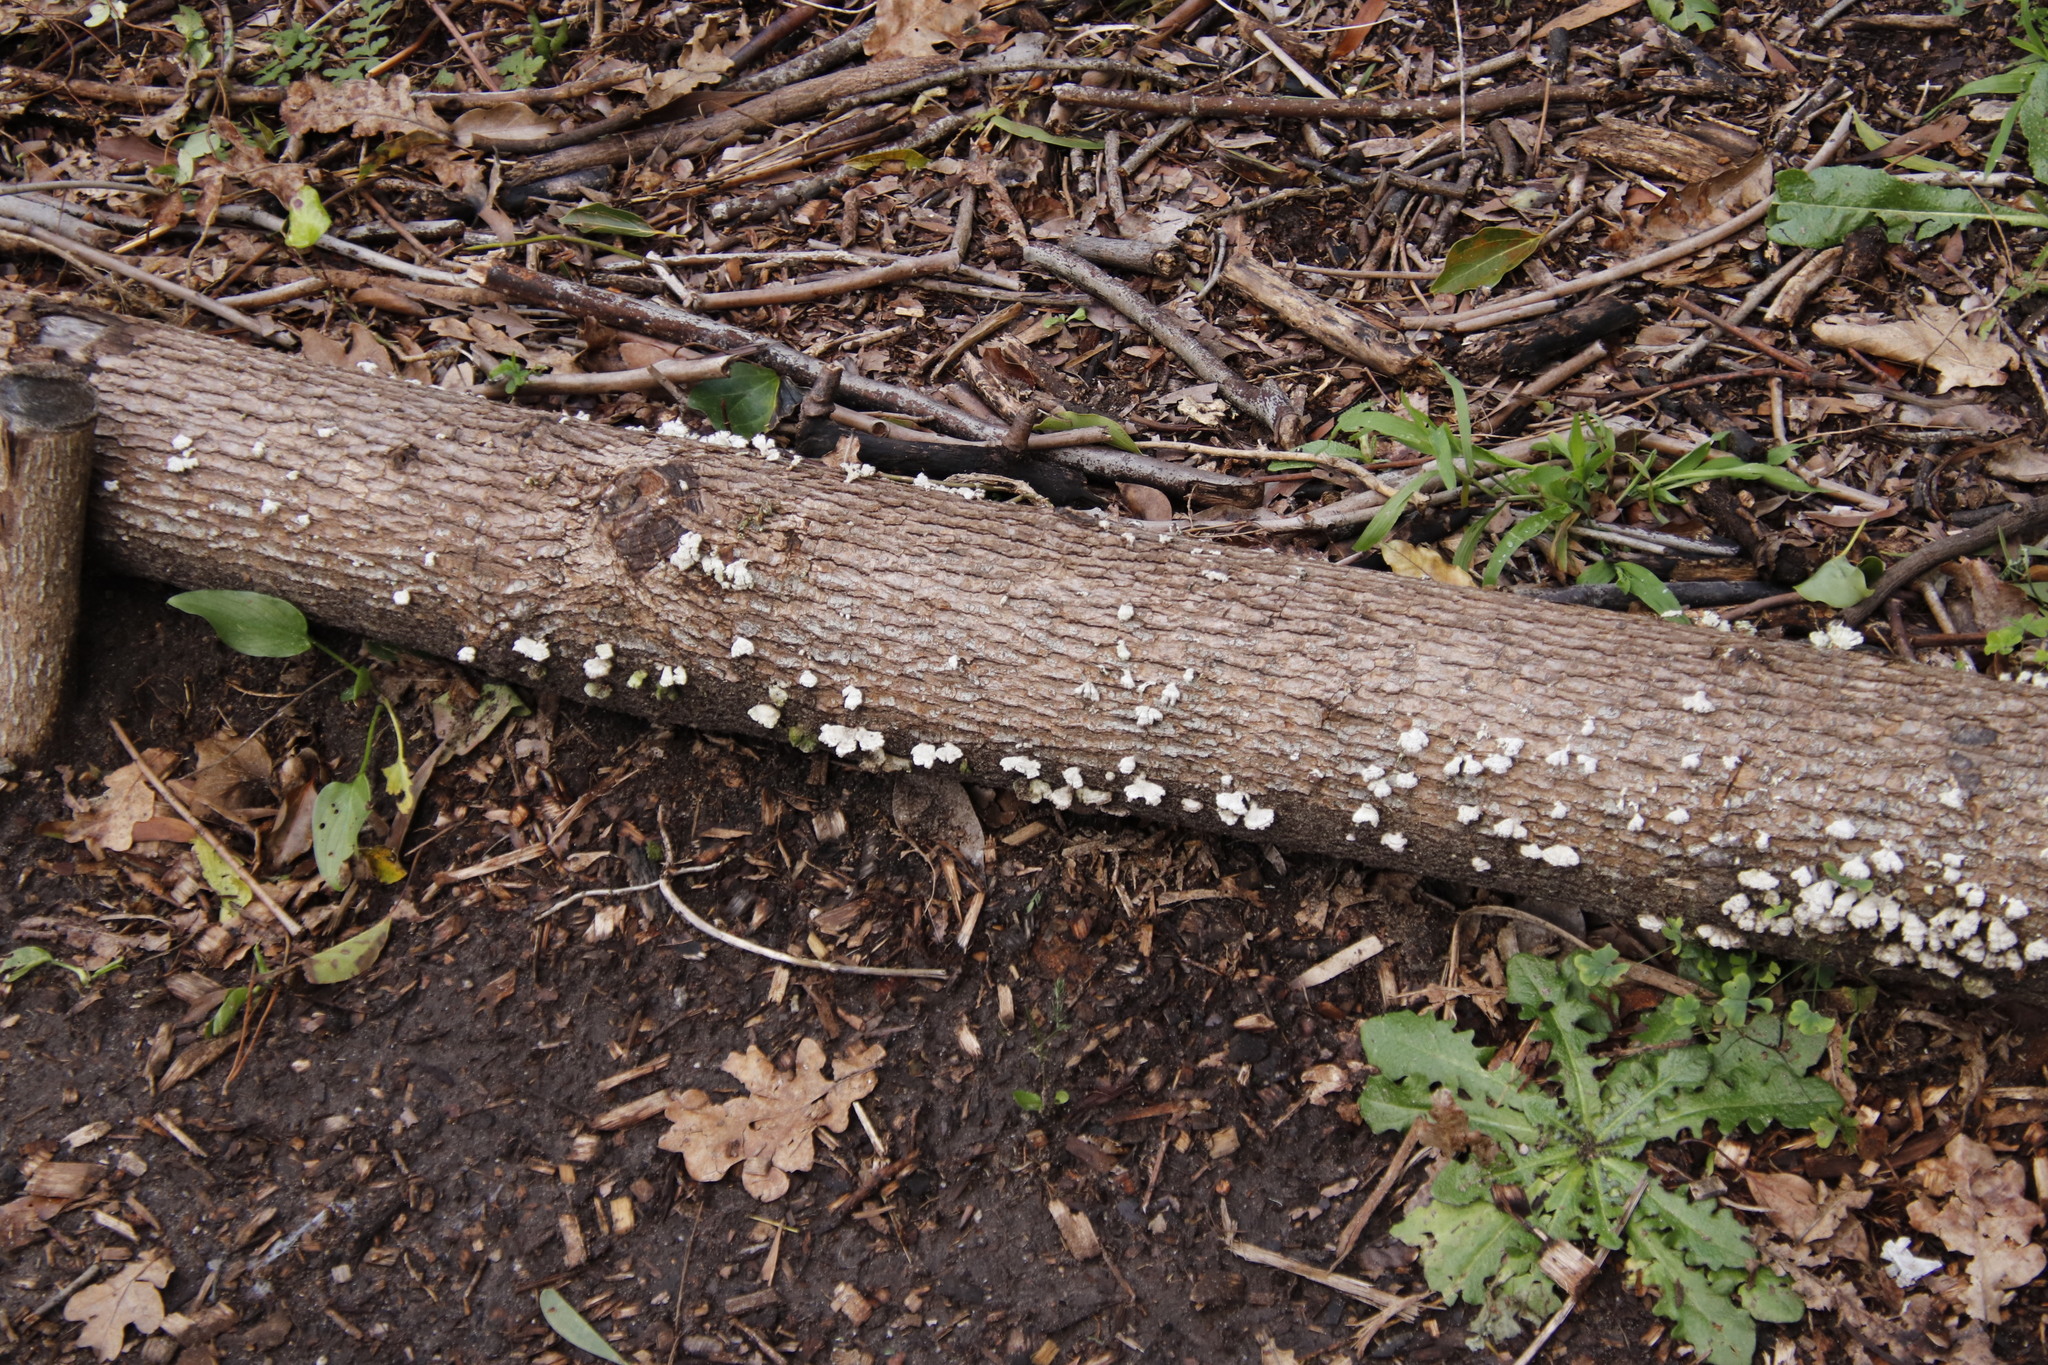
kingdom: Fungi
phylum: Basidiomycota
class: Agaricomycetes
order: Agaricales
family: Schizophyllaceae
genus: Schizophyllum
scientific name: Schizophyllum commune
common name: Common porecrust
